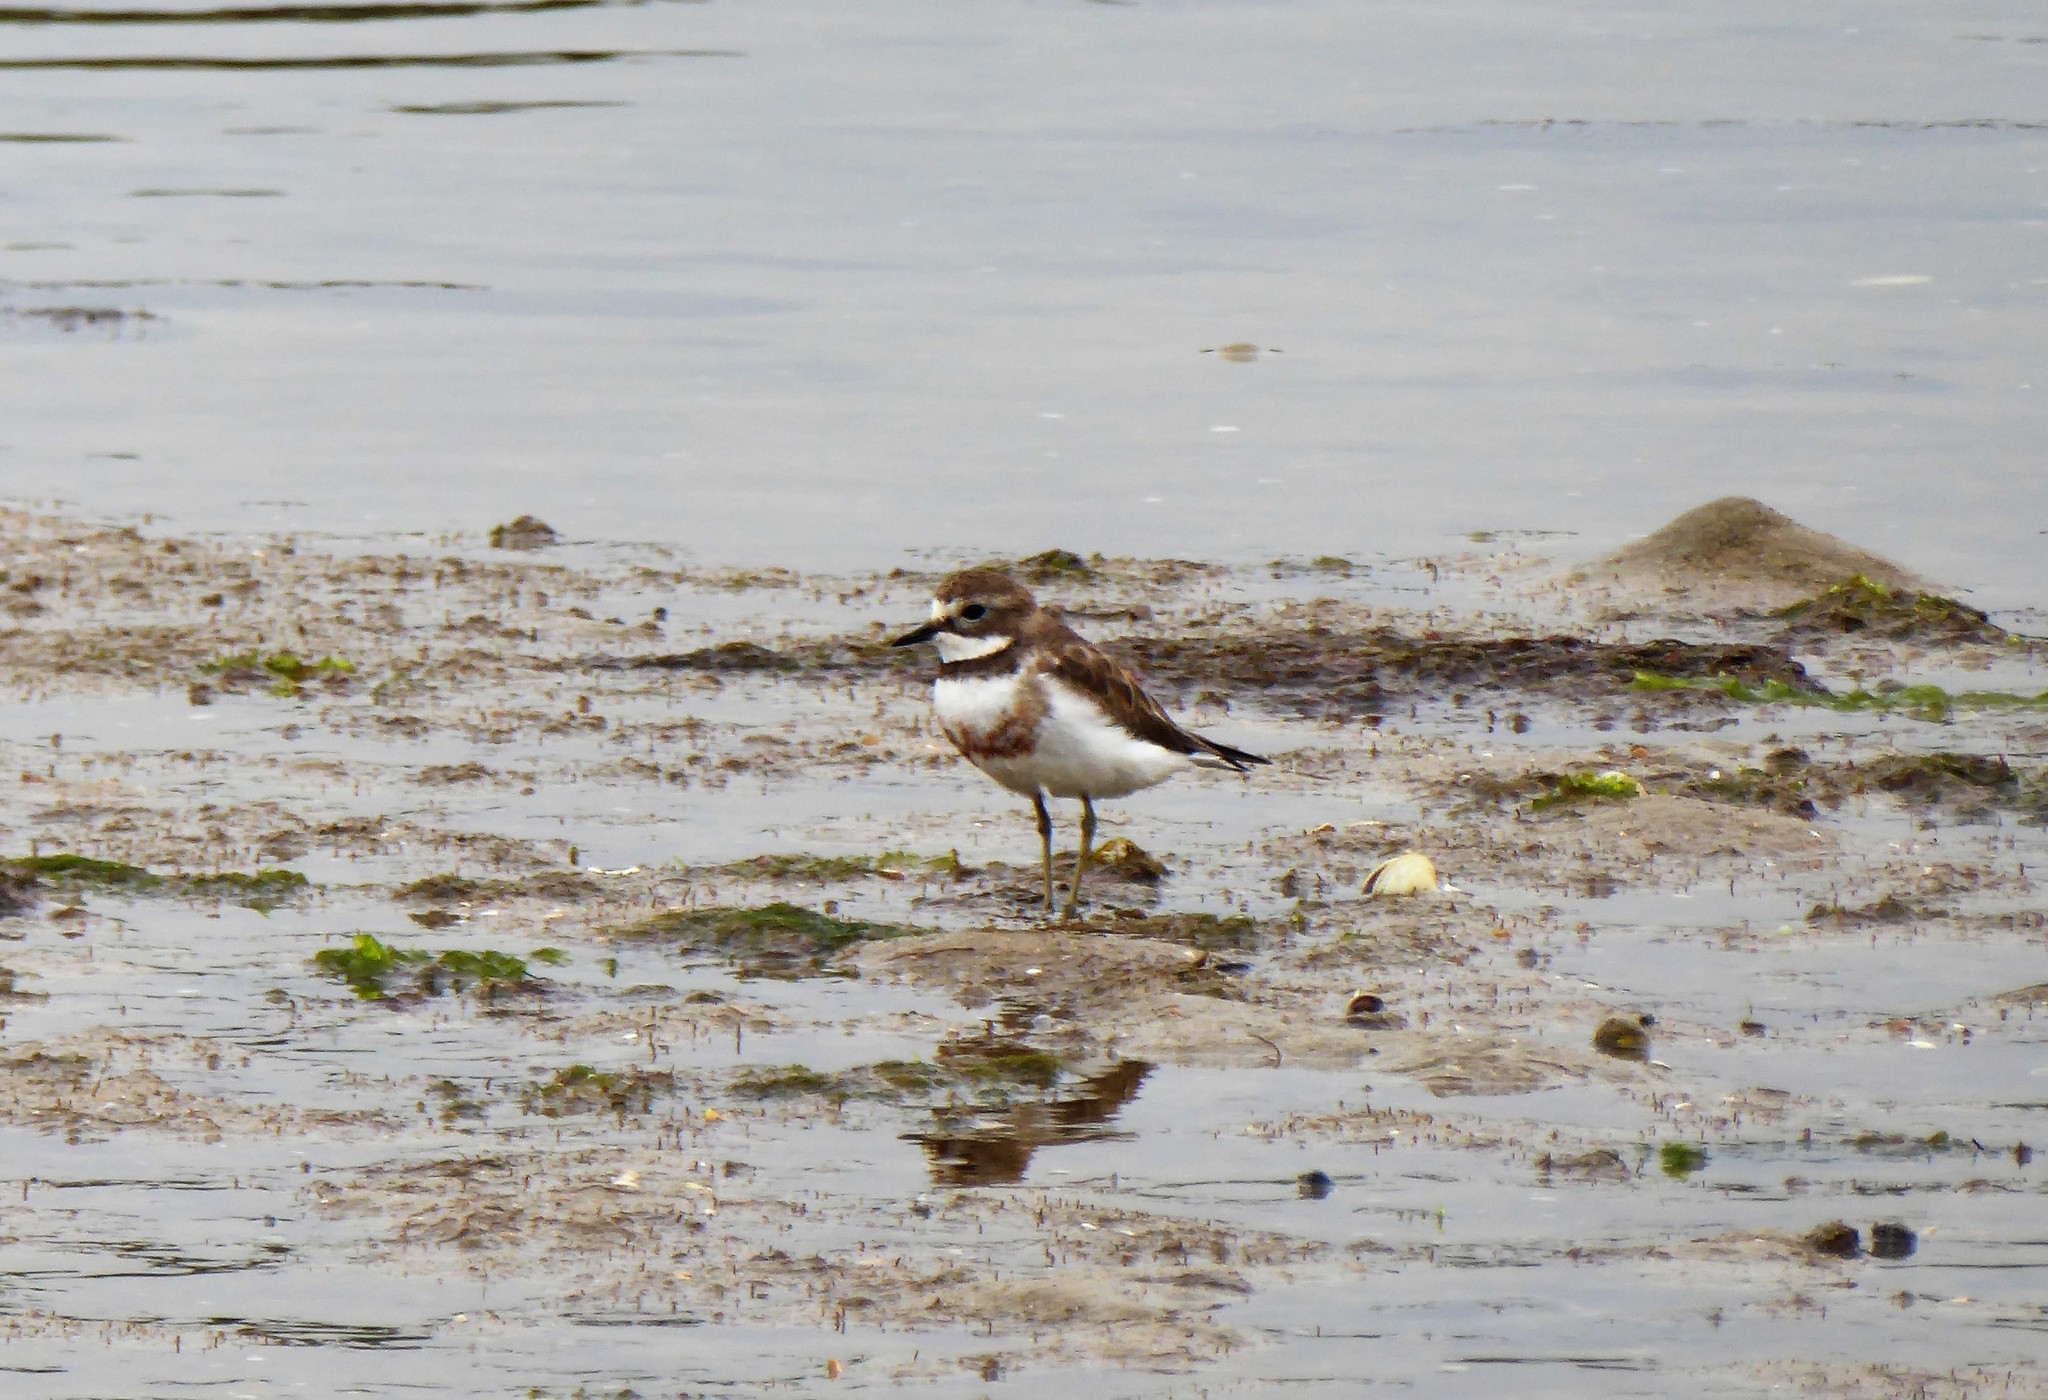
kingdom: Animalia
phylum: Chordata
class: Aves
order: Charadriiformes
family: Charadriidae
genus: Anarhynchus
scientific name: Anarhynchus
